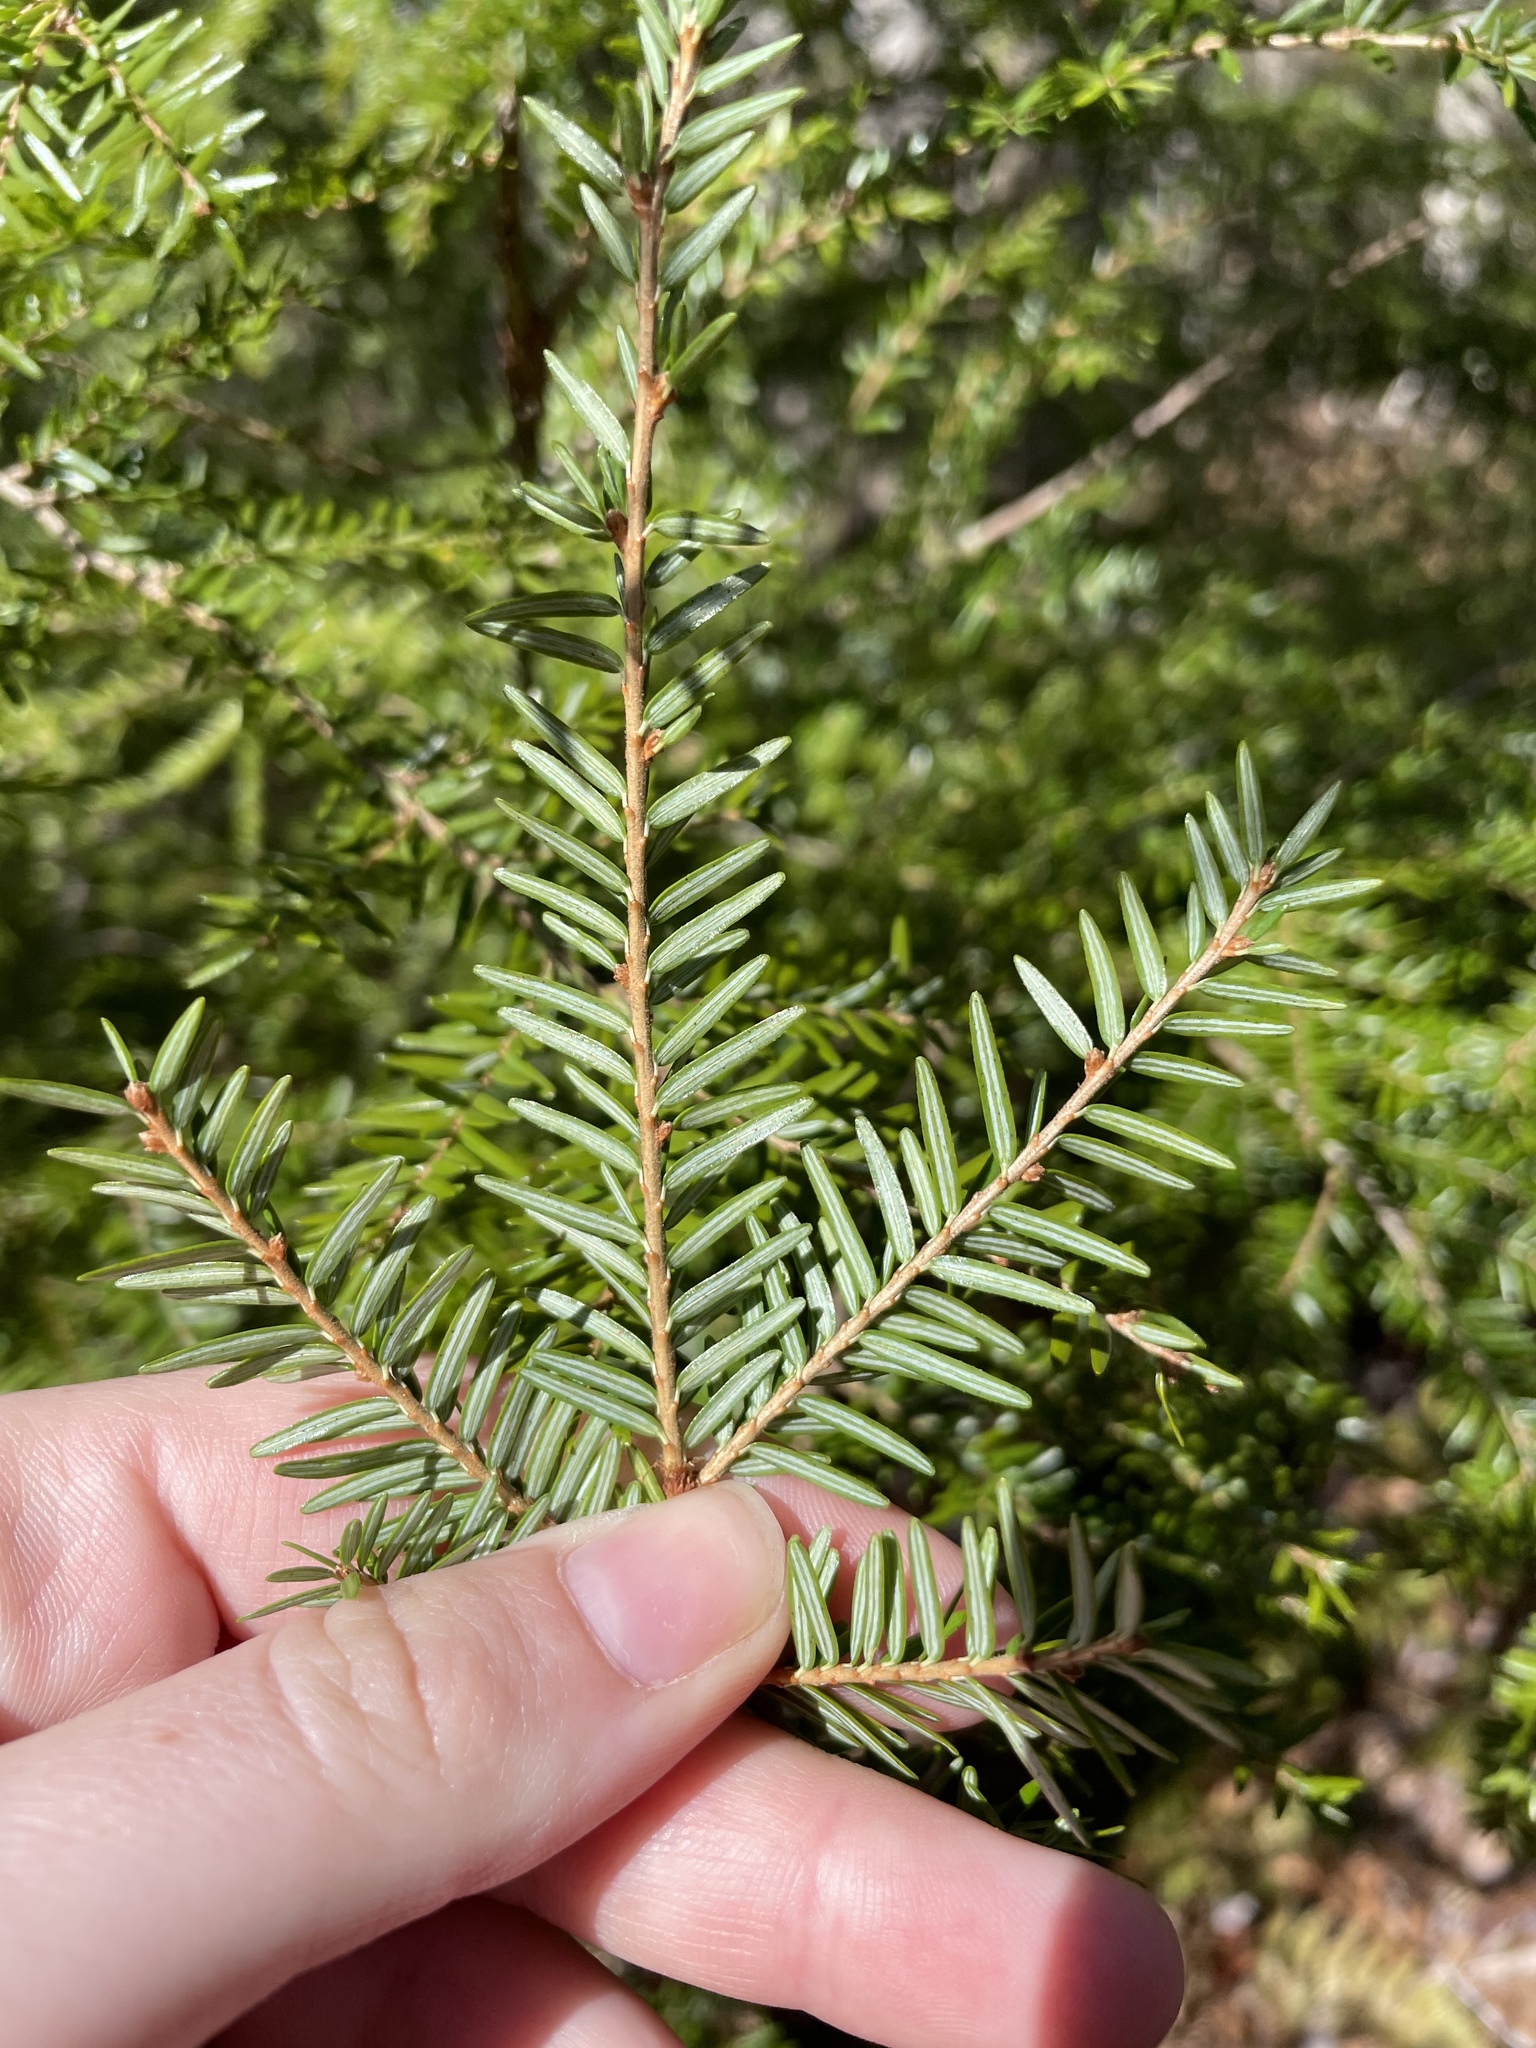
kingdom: Plantae
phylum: Tracheophyta
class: Pinopsida
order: Pinales
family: Pinaceae
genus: Tsuga
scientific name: Tsuga canadensis
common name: Eastern hemlock
